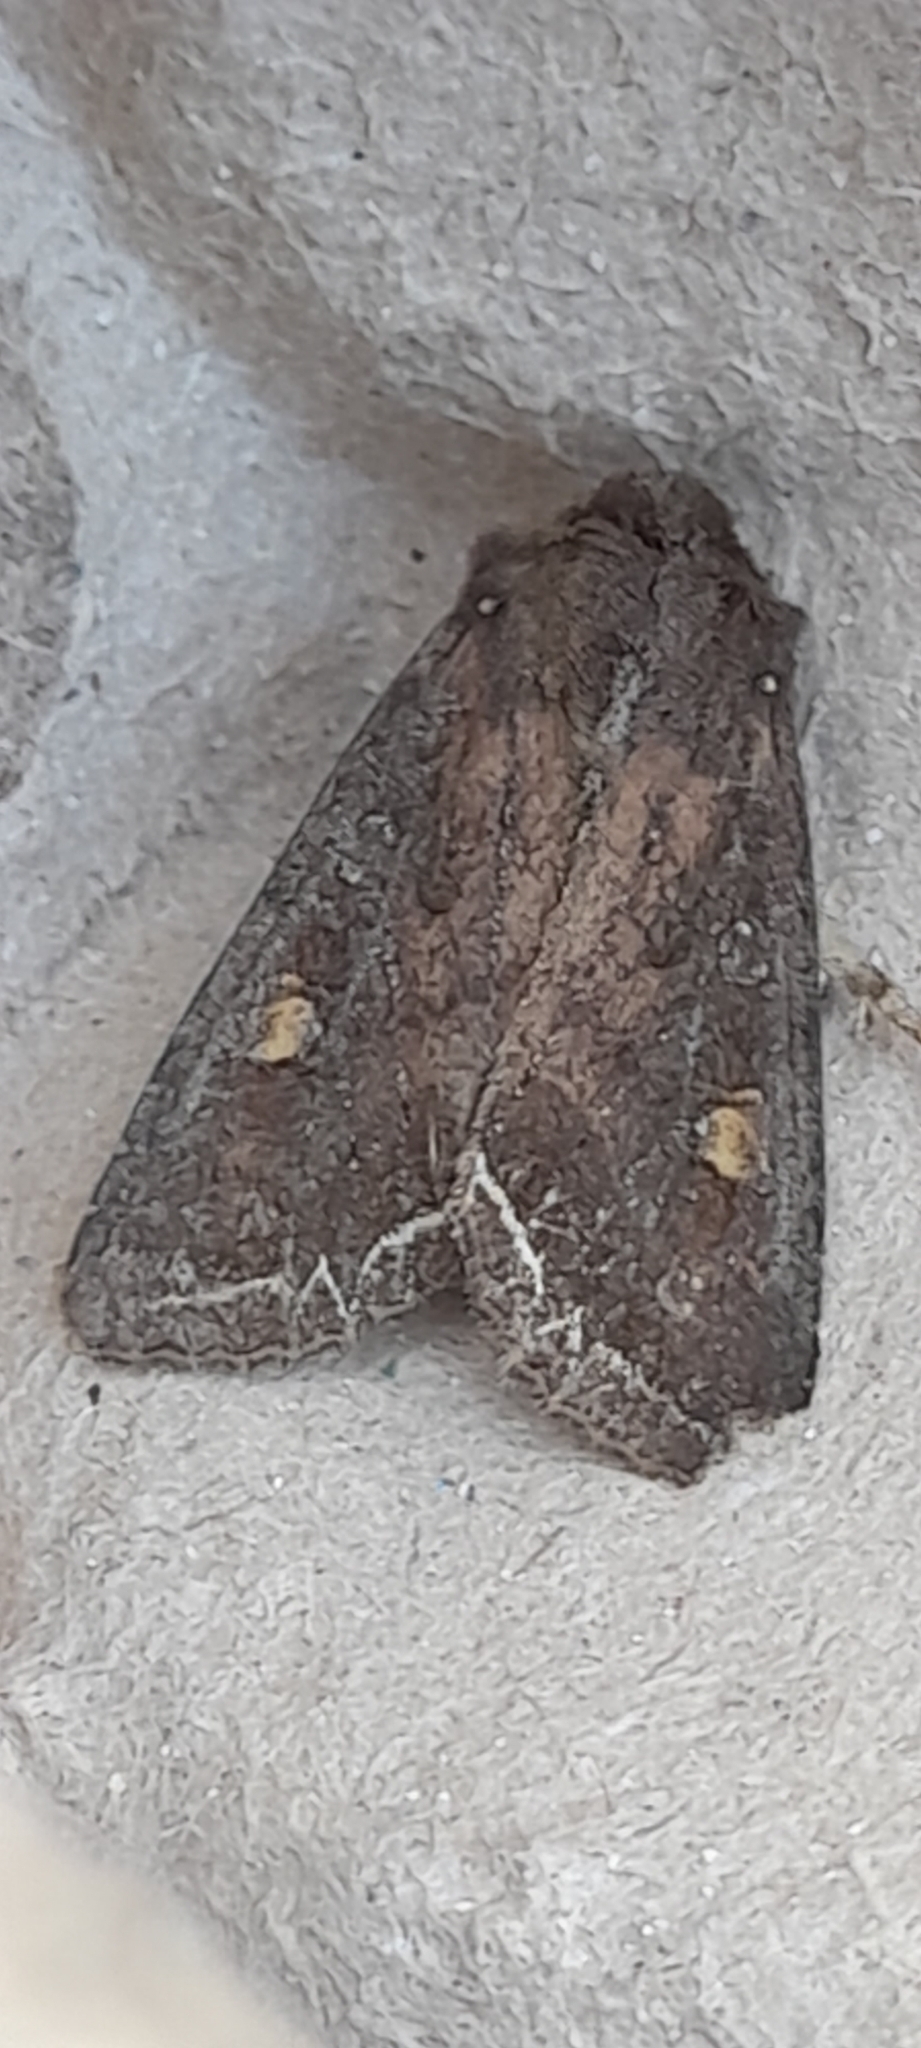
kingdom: Animalia
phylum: Arthropoda
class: Insecta
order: Lepidoptera
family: Noctuidae
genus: Lacanobia
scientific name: Lacanobia oleracea
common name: Bright-line brown-eye
